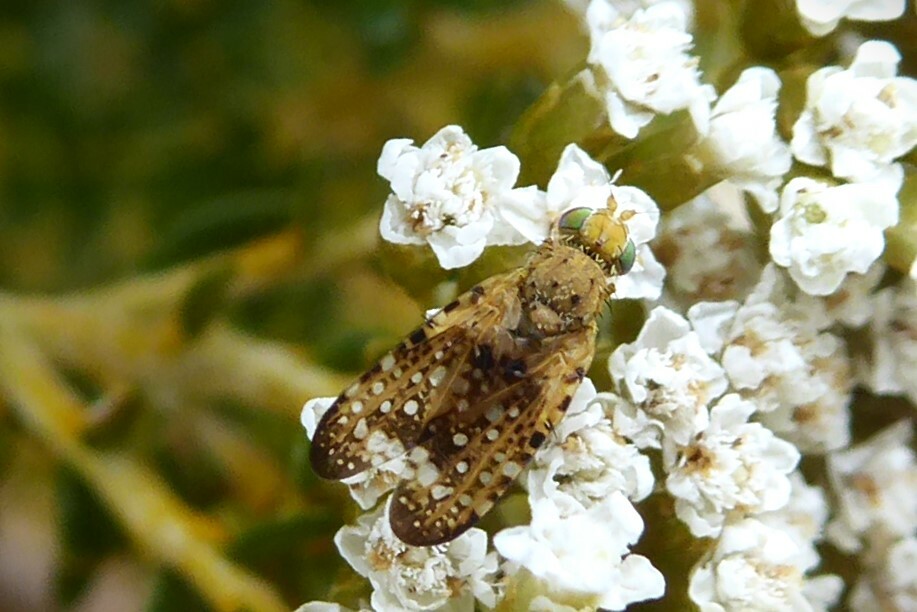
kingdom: Animalia
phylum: Arthropoda
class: Insecta
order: Diptera
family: Tephritidae
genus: Austrotephritis
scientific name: Austrotephritis
